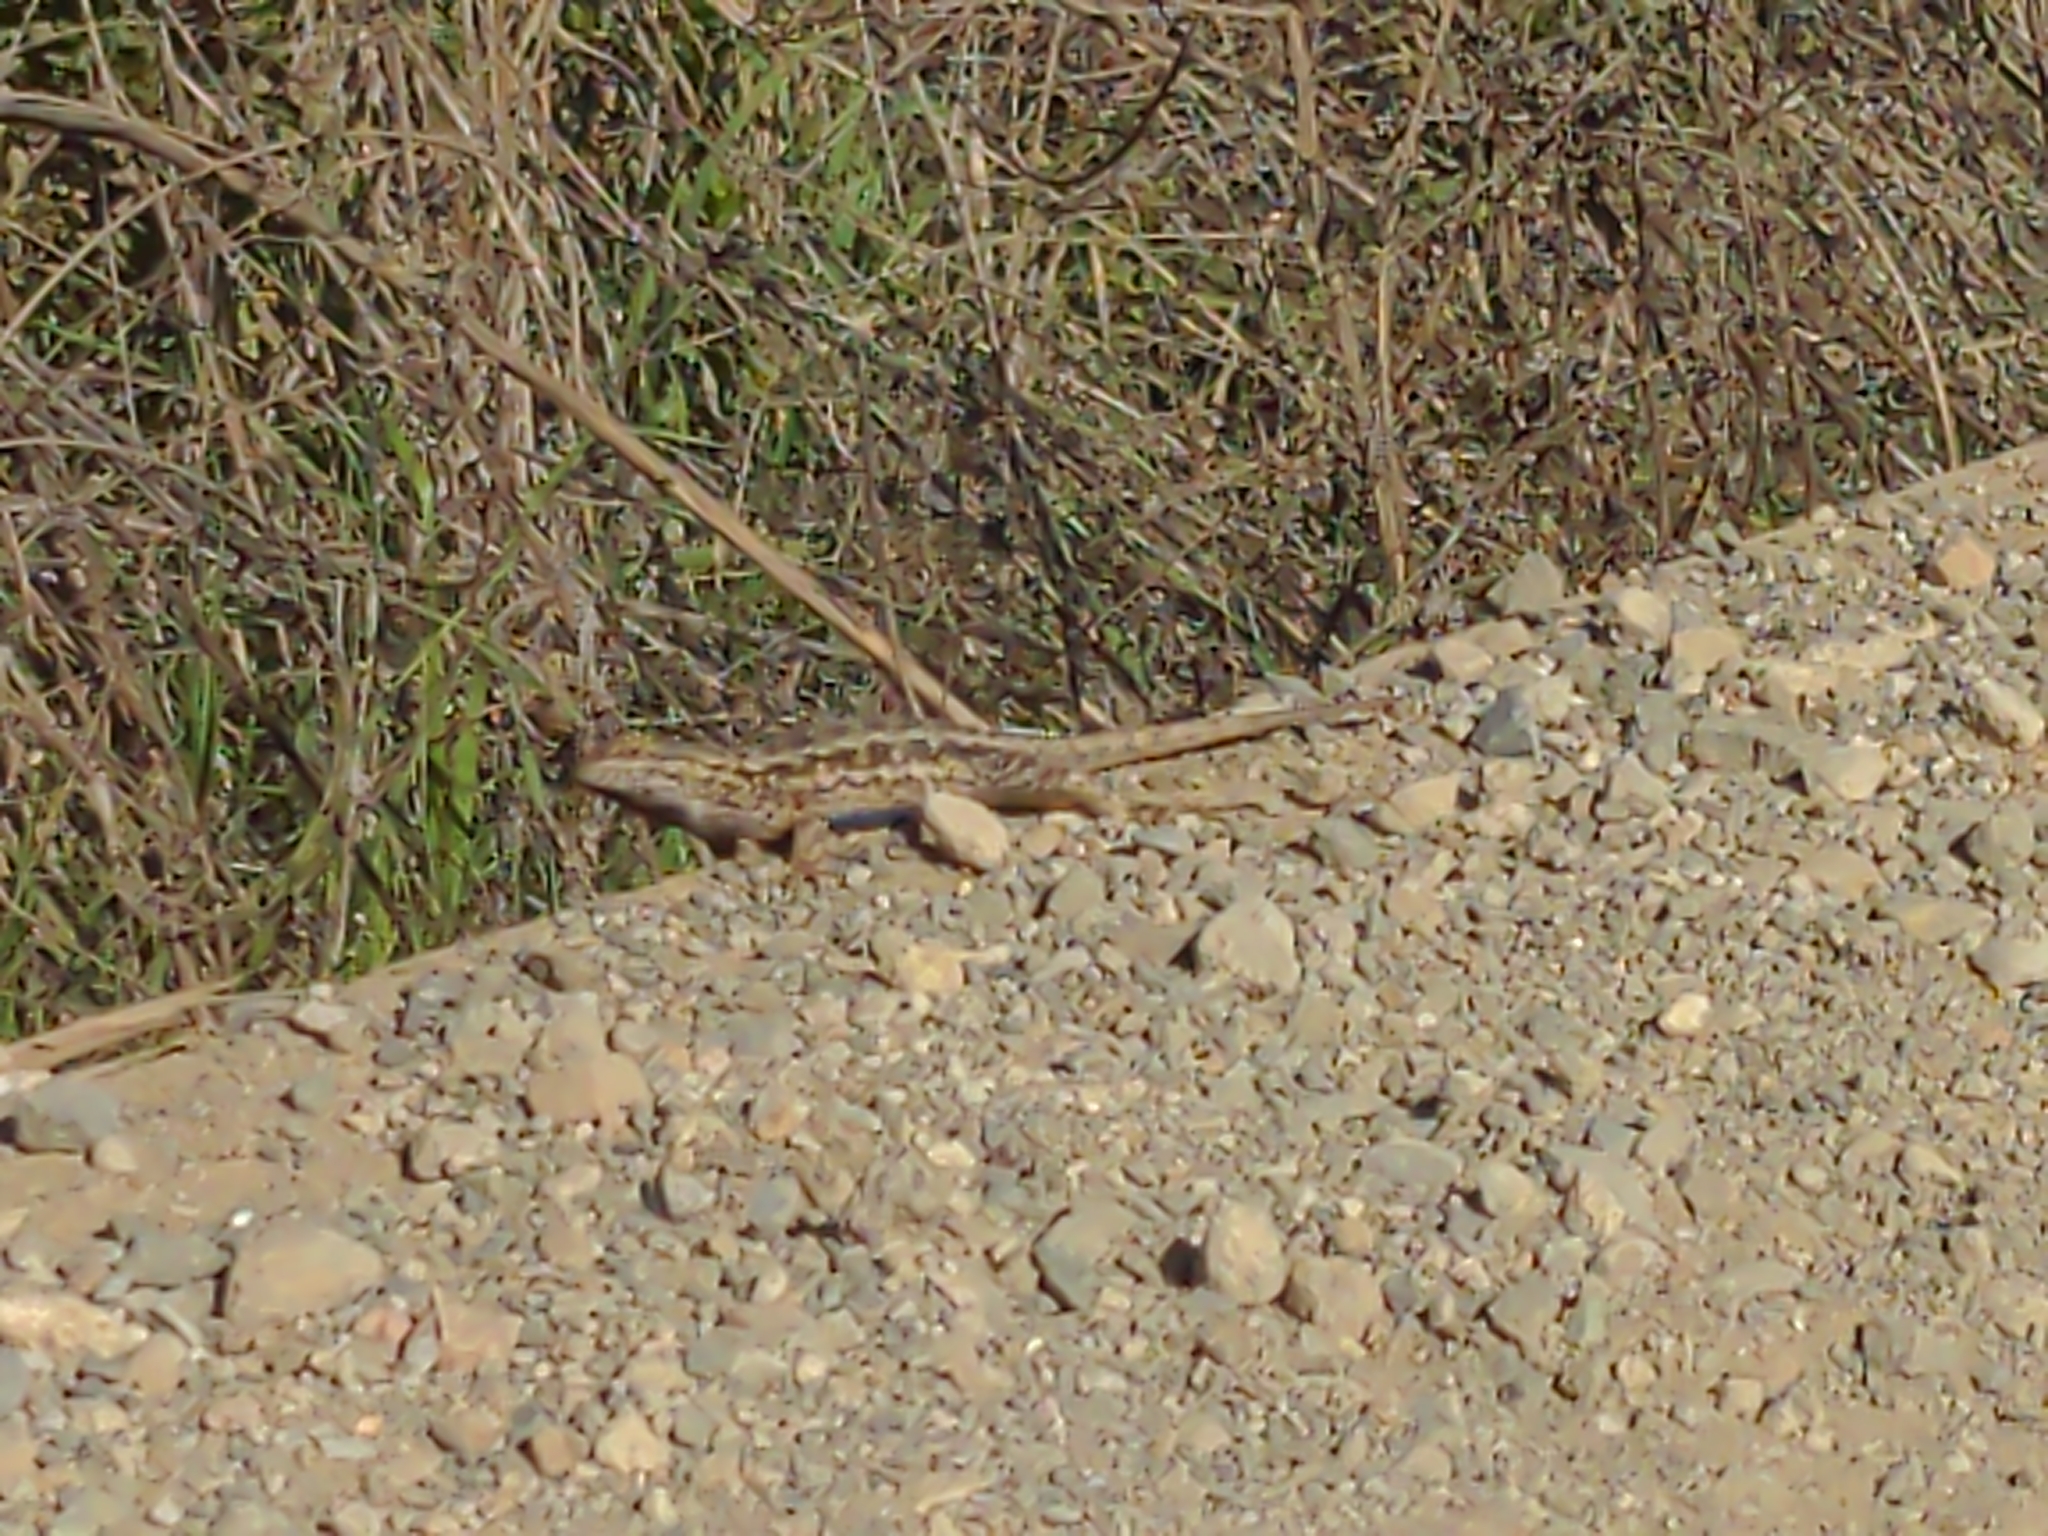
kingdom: Animalia
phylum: Chordata
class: Squamata
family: Phrynosomatidae
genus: Sceloporus
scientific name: Sceloporus occidentalis
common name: Western fence lizard
